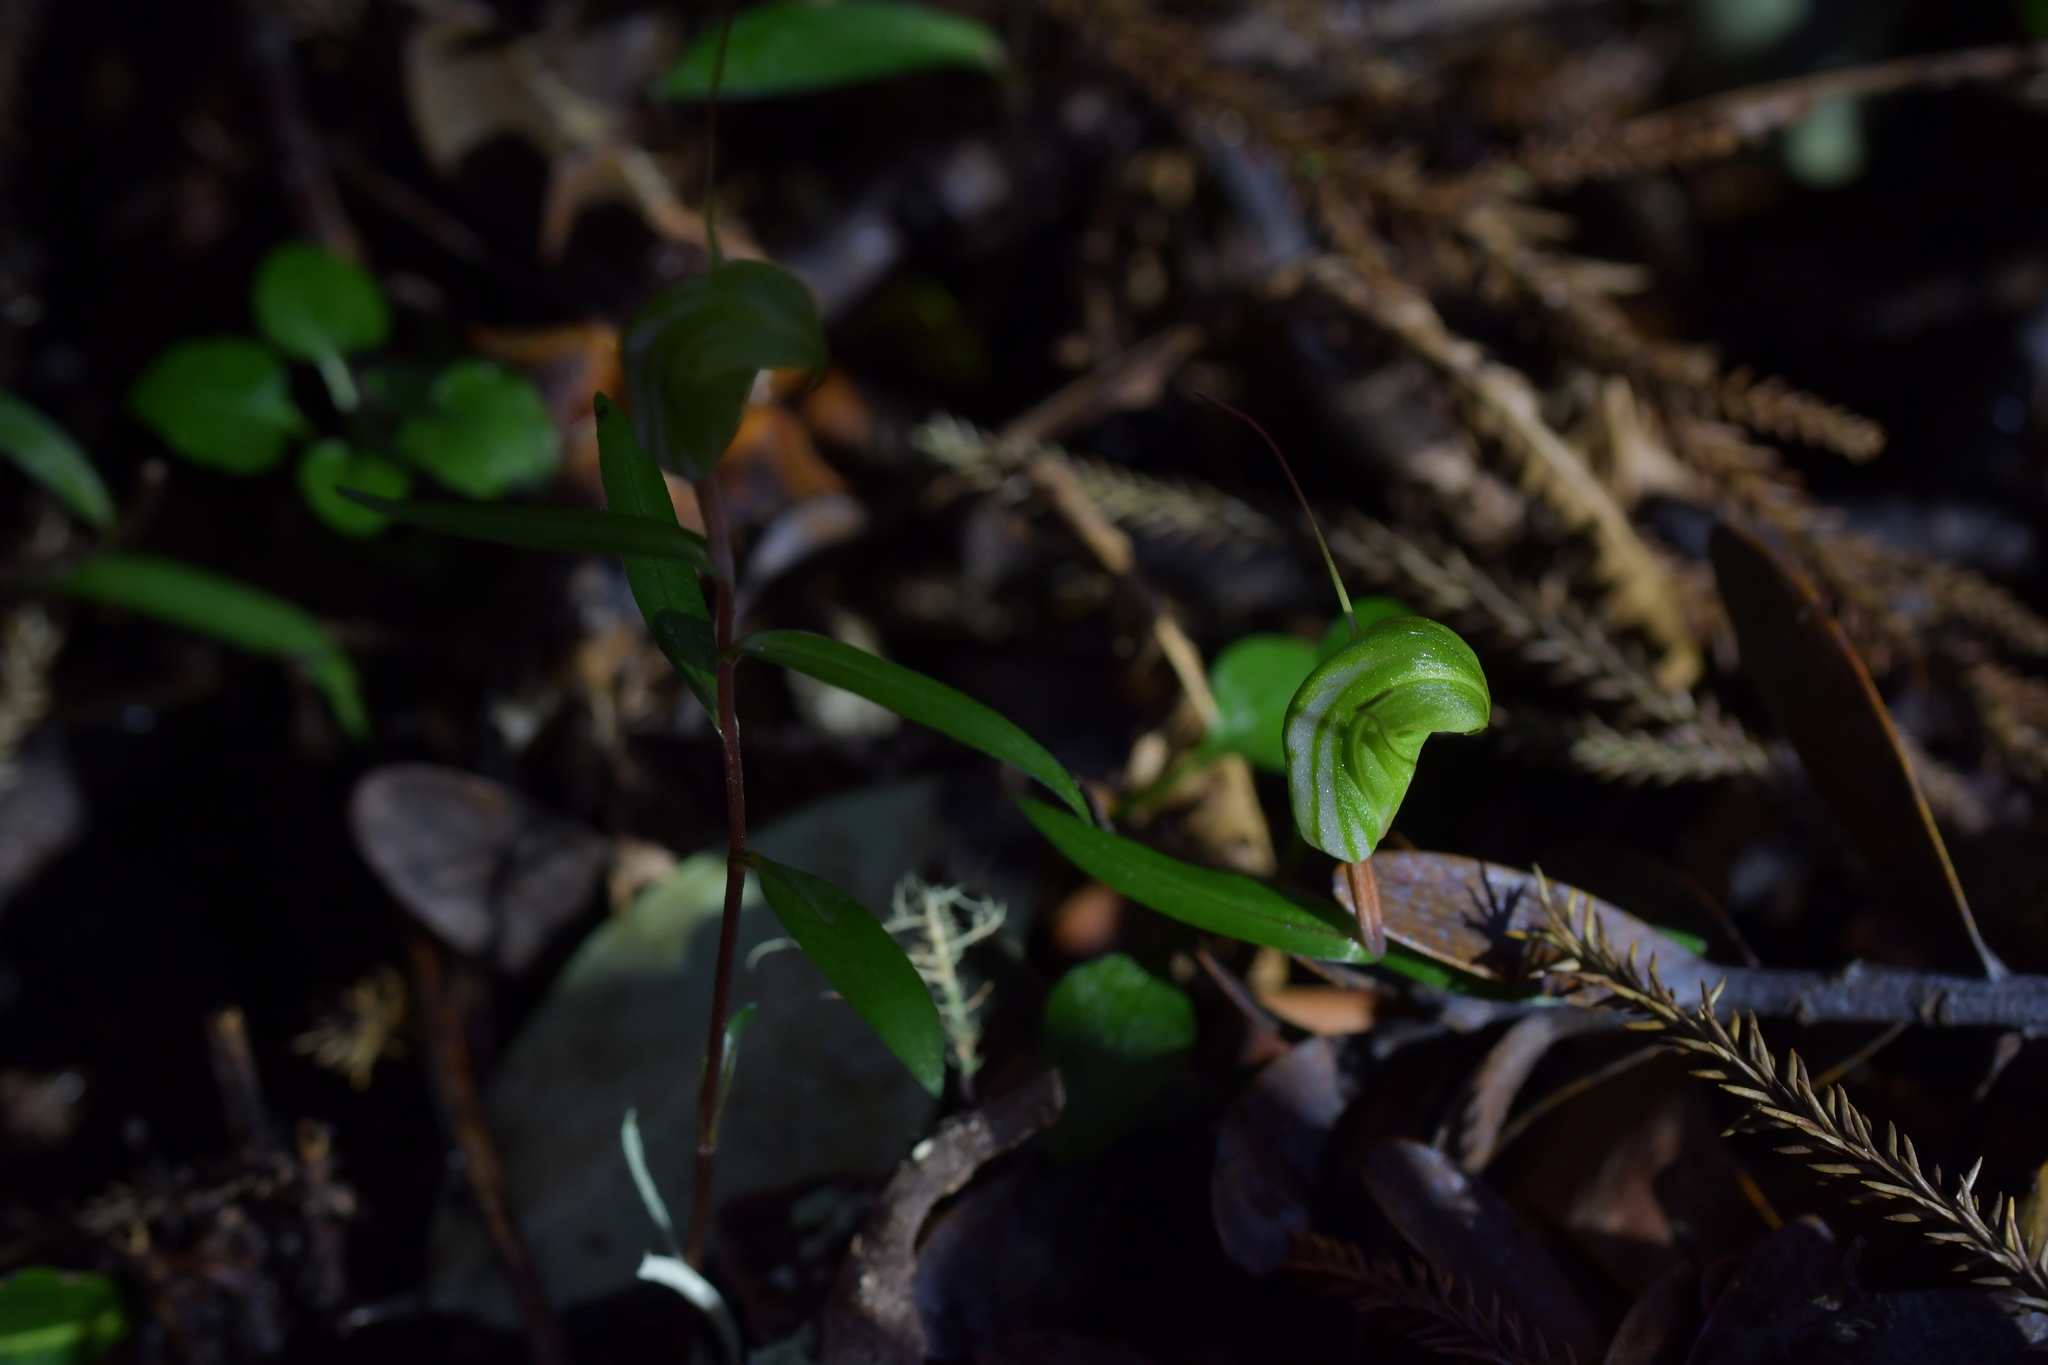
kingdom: Plantae
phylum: Tracheophyta
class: Liliopsida
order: Asparagales
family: Orchidaceae
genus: Pterostylis
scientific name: Pterostylis brumalis
